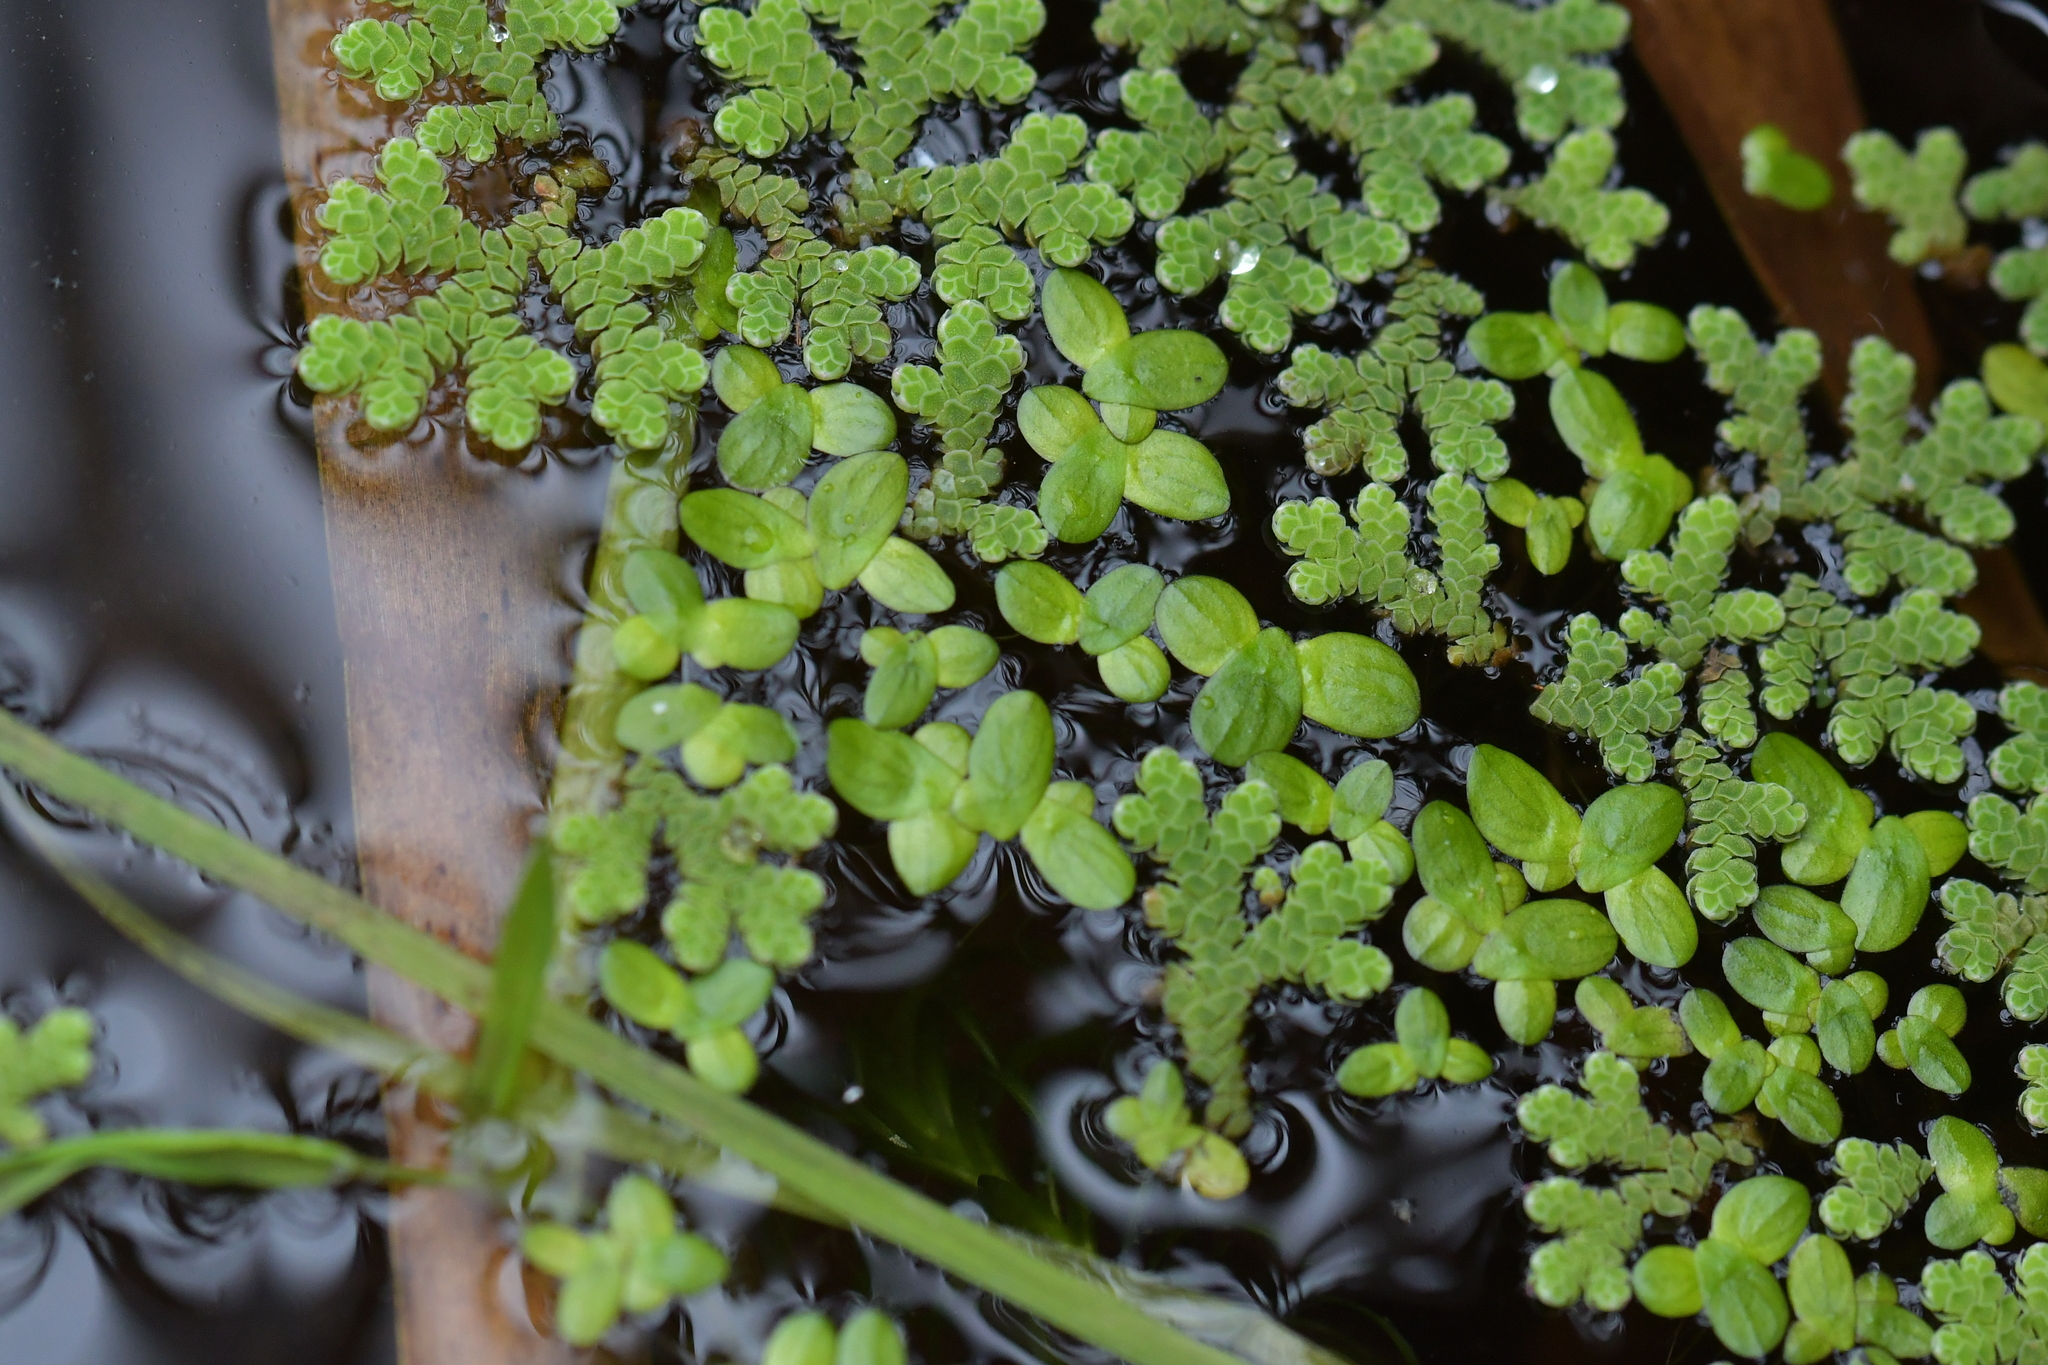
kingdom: Plantae
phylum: Tracheophyta
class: Polypodiopsida
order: Salviniales
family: Salviniaceae
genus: Azolla
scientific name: Azolla rubra
